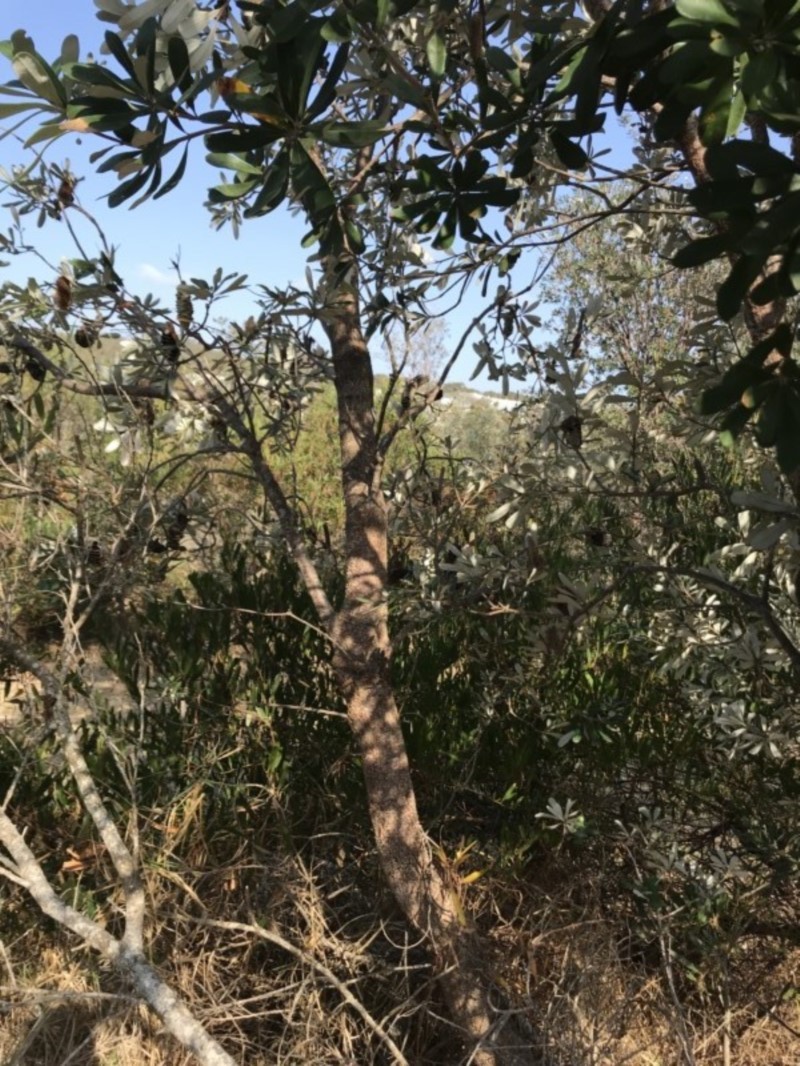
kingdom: Plantae
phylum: Tracheophyta
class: Magnoliopsida
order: Proteales
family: Proteaceae
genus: Banksia
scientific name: Banksia integrifolia
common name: White-honeysuckle
